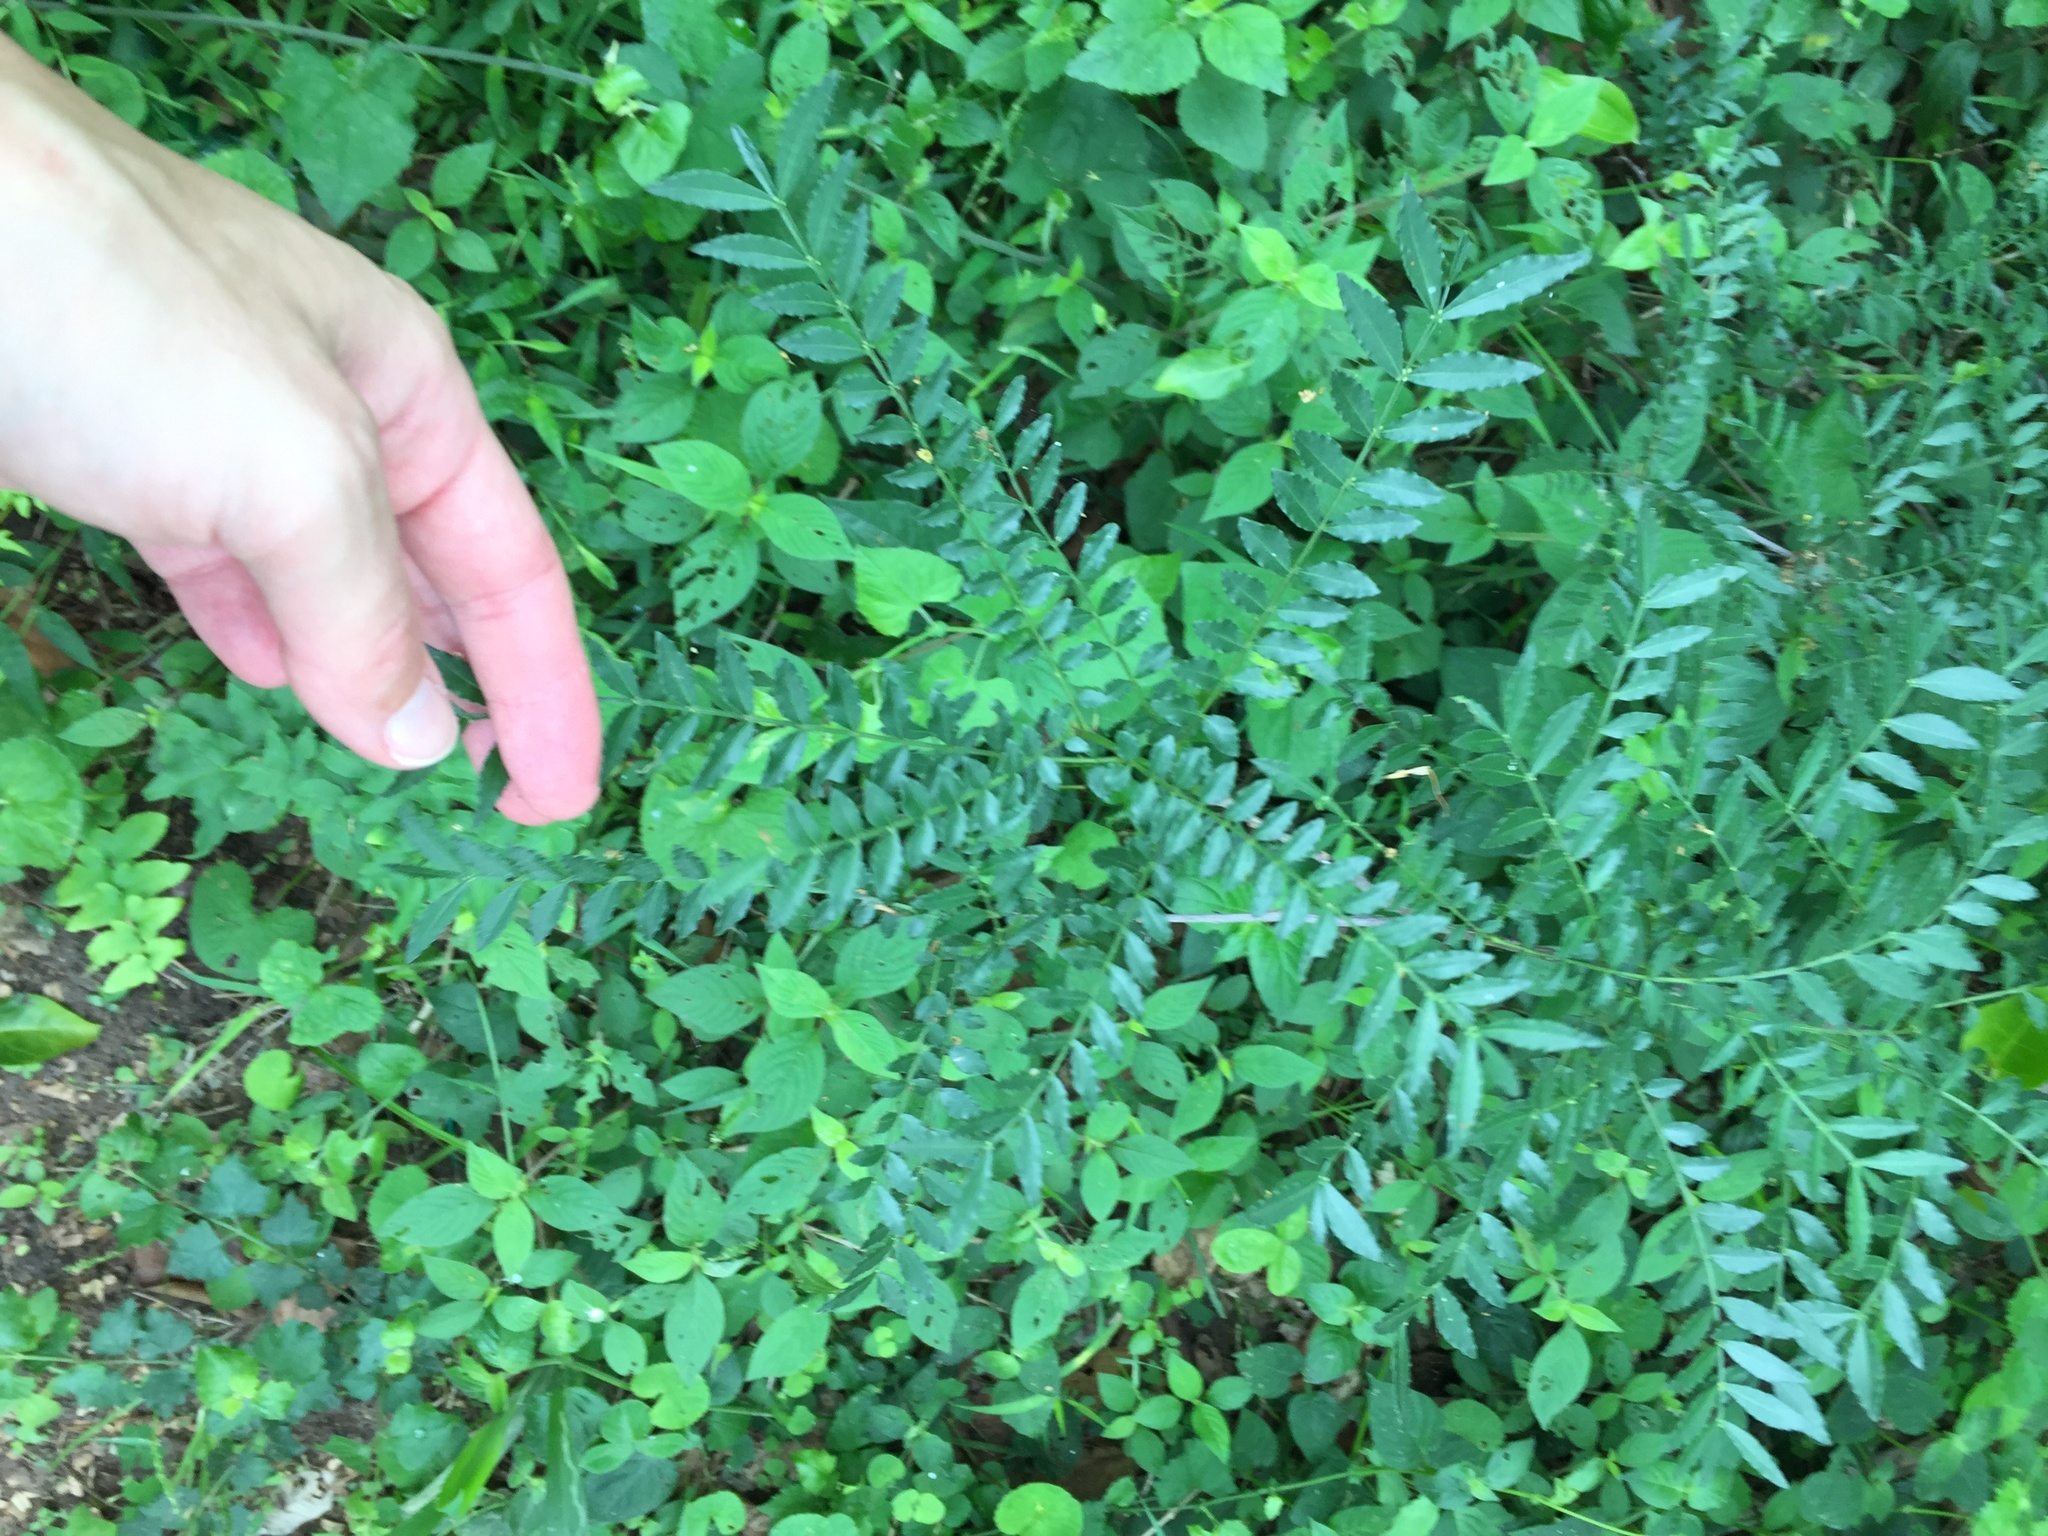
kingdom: Plantae
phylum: Tracheophyta
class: Magnoliopsida
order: Sapindales
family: Rutaceae
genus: Zanthoxylum
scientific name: Zanthoxylum capense
